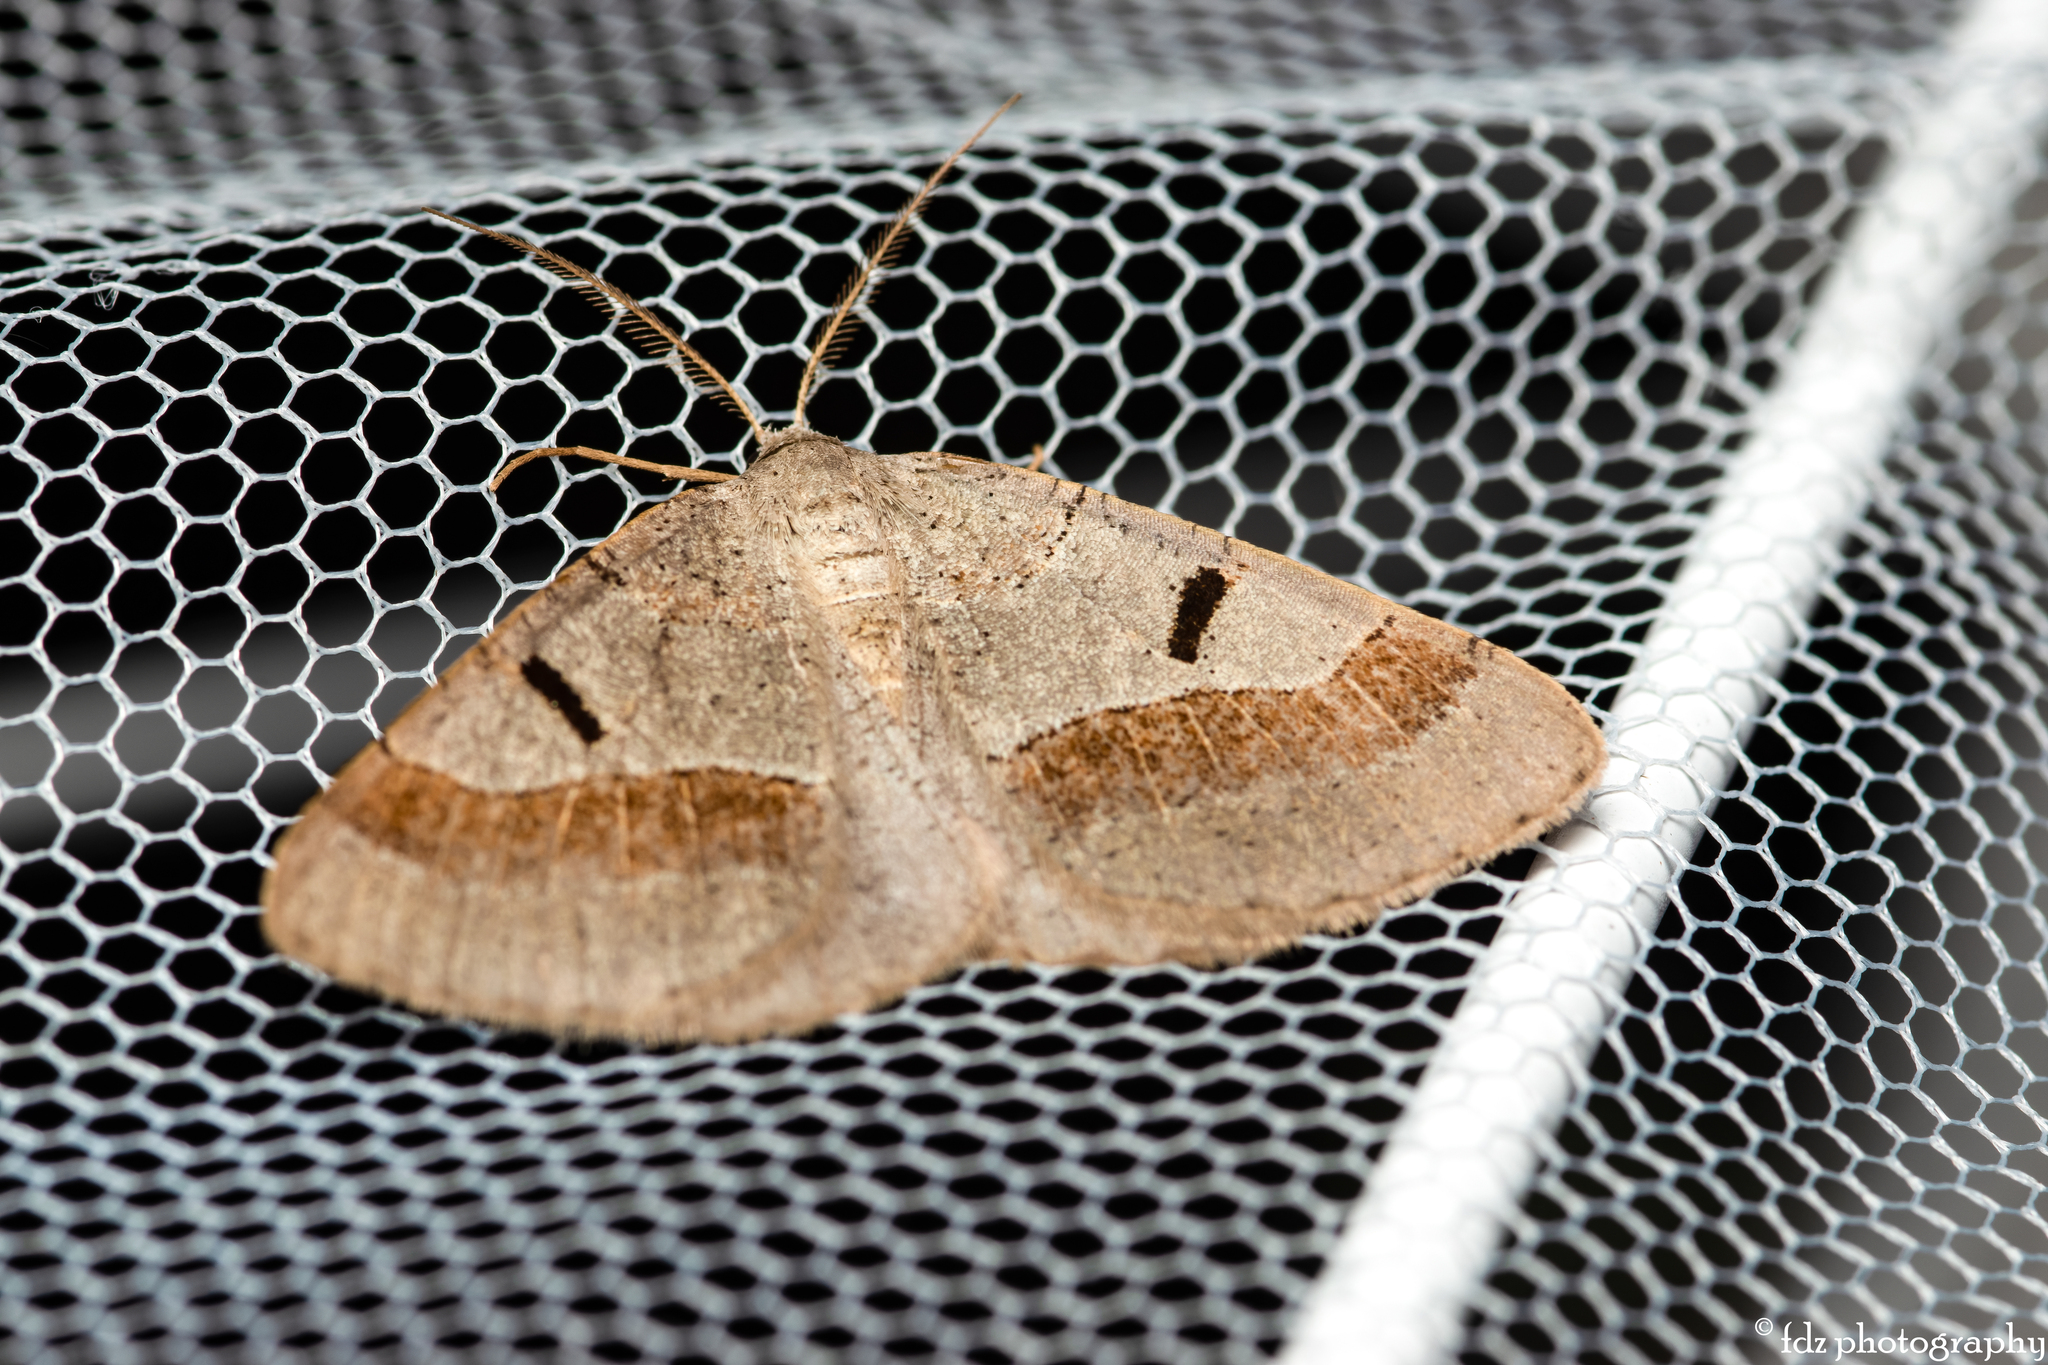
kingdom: Animalia
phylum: Arthropoda
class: Insecta
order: Lepidoptera
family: Geometridae
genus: Itame
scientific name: Itame vincularia
